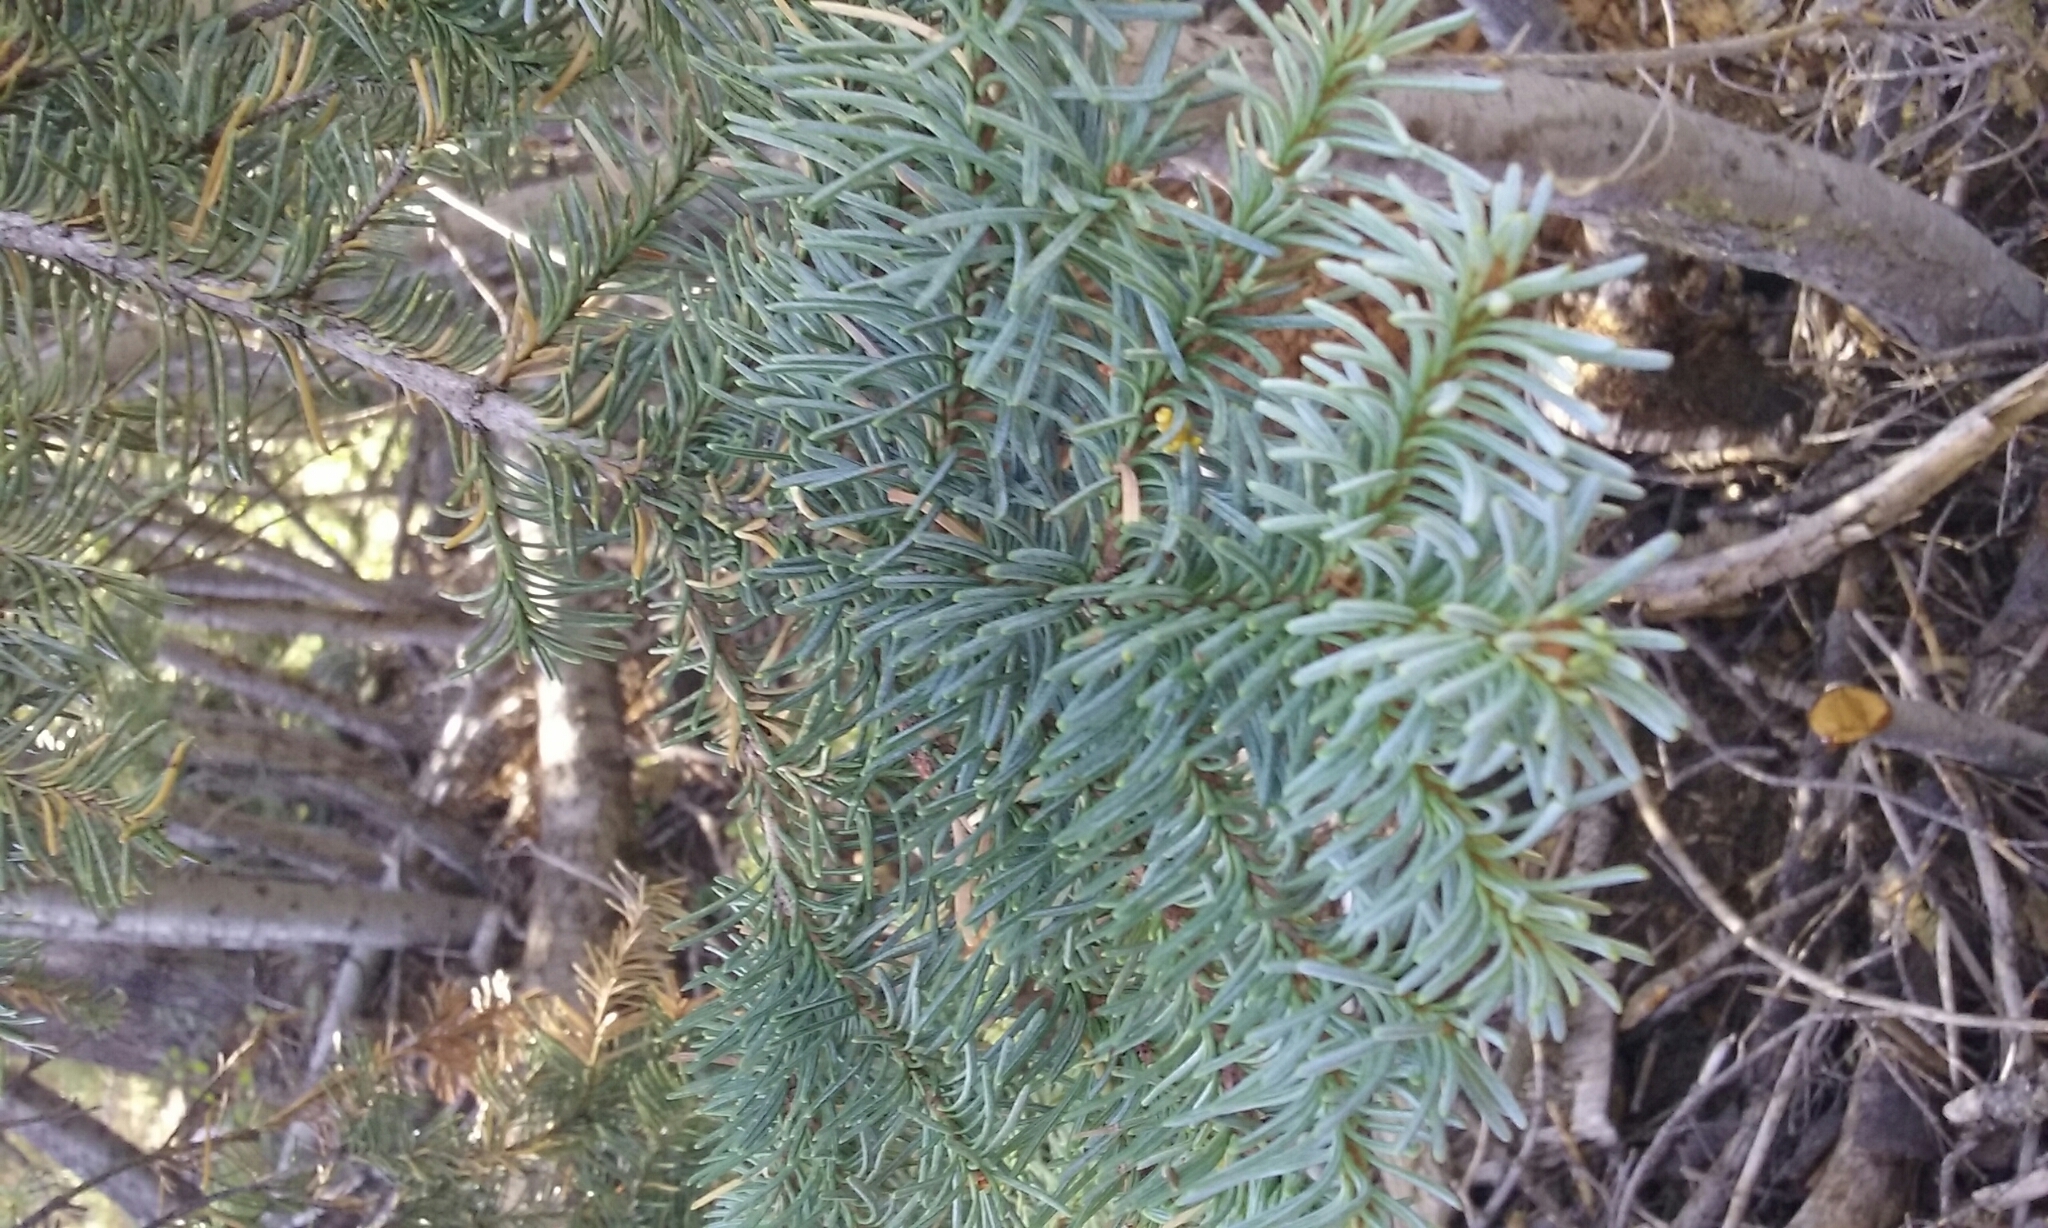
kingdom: Plantae
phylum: Tracheophyta
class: Pinopsida
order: Pinales
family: Pinaceae
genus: Abies
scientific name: Abies magnifica bis
